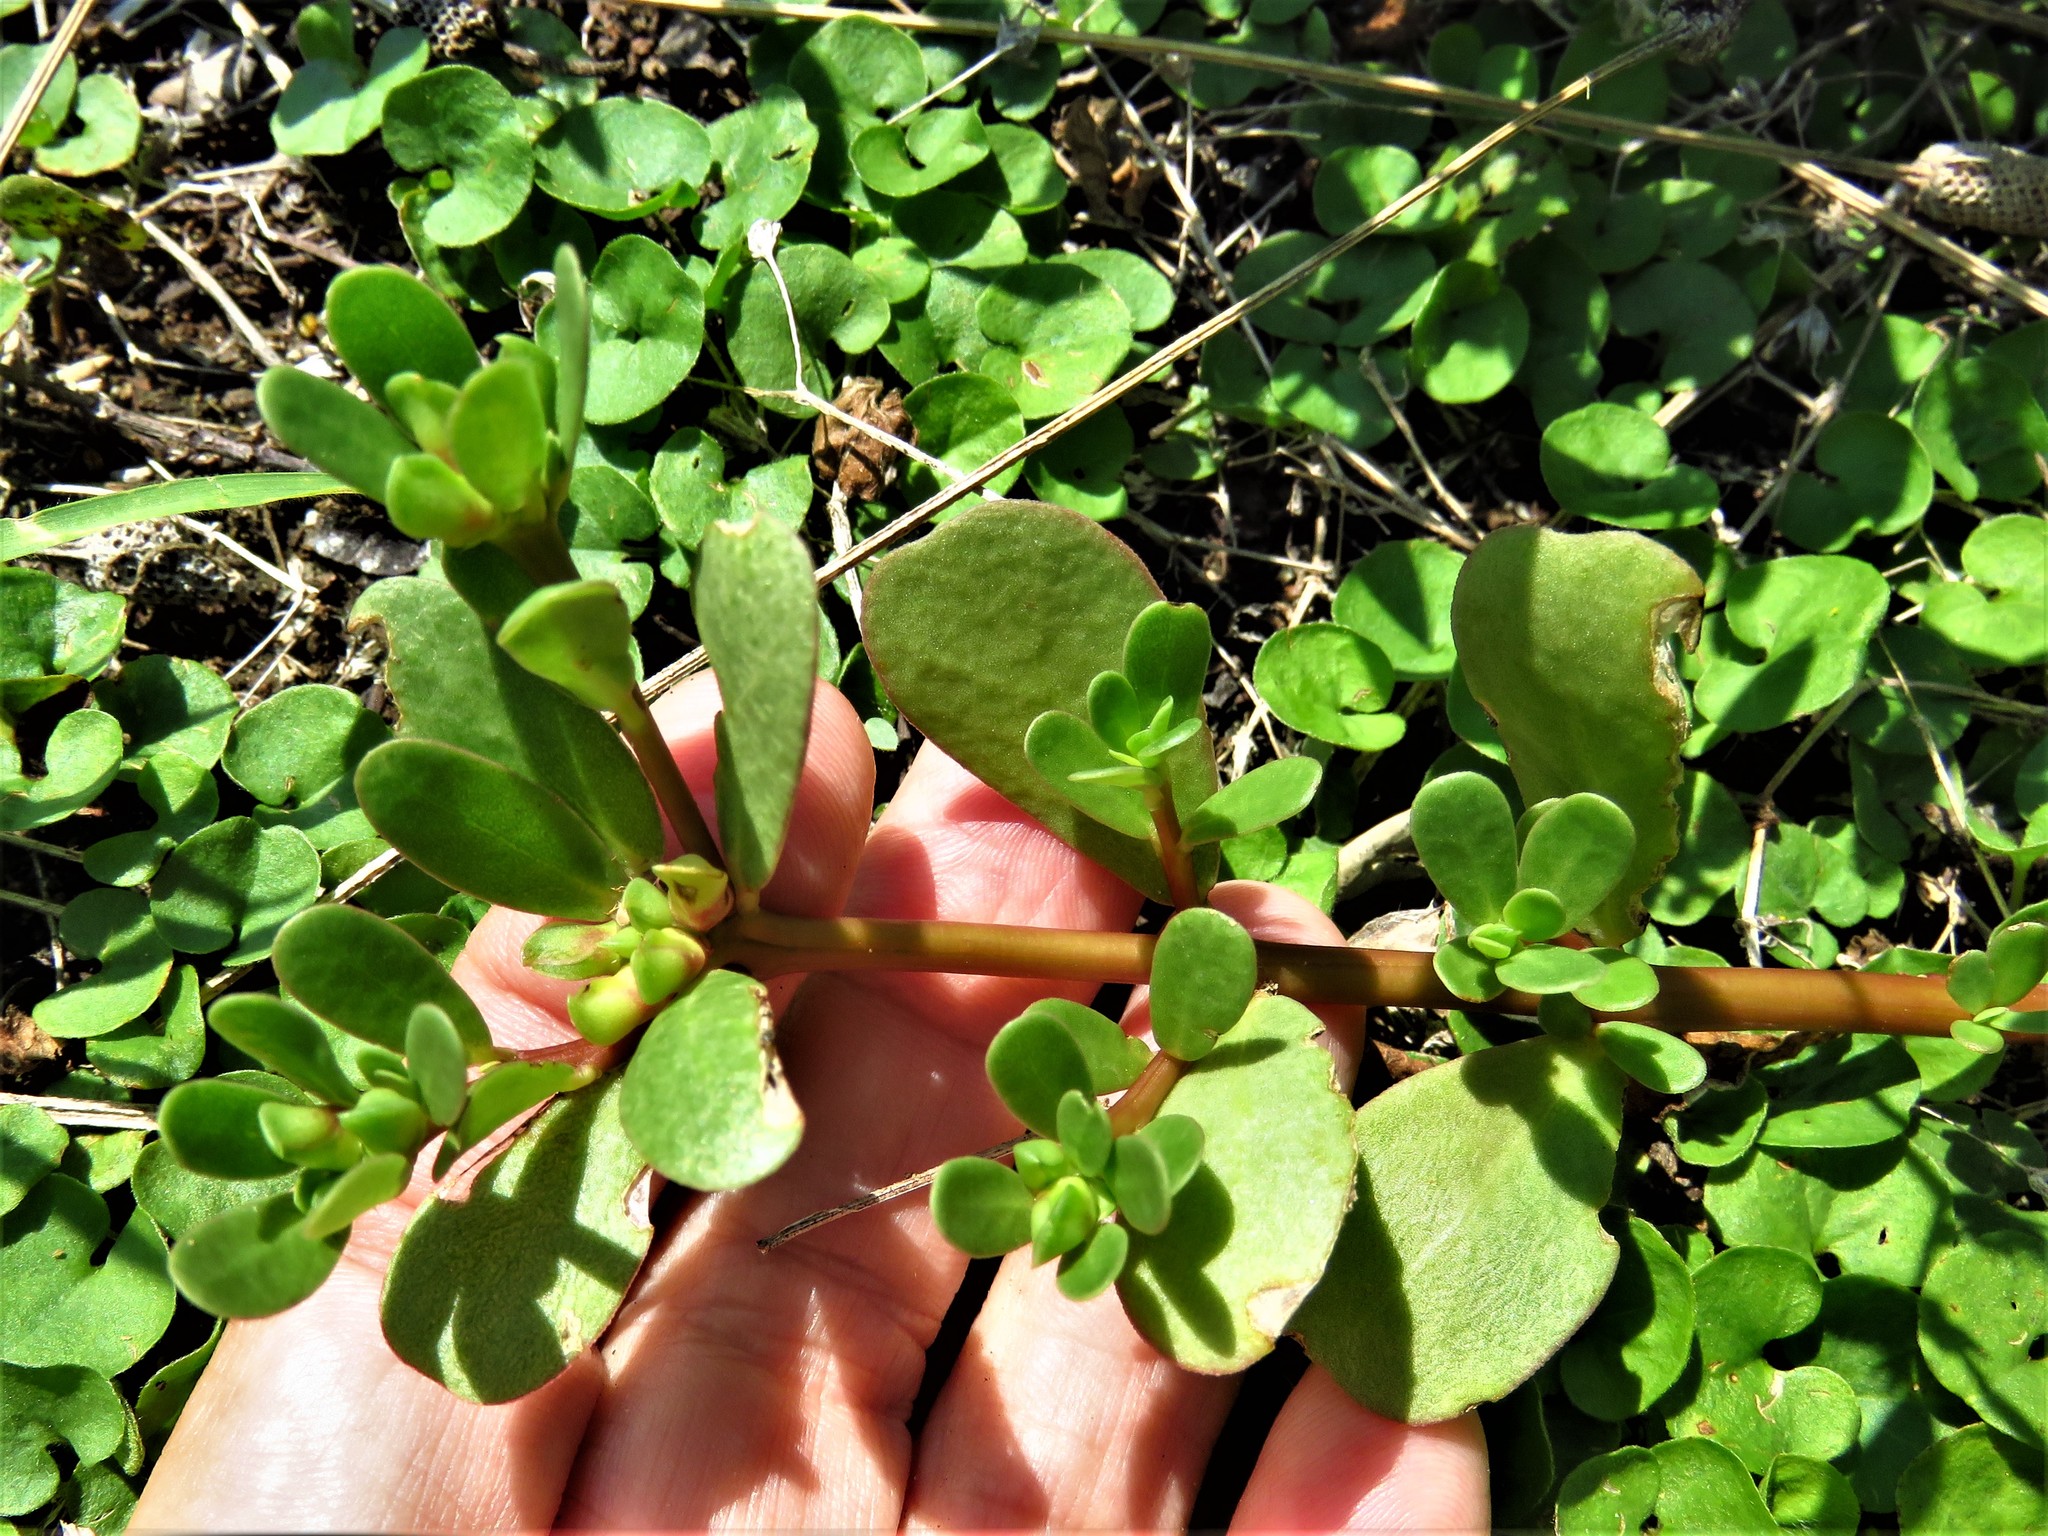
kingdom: Plantae
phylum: Tracheophyta
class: Magnoliopsida
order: Caryophyllales
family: Portulacaceae
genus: Portulaca
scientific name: Portulaca oleracea
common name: Common purslane
